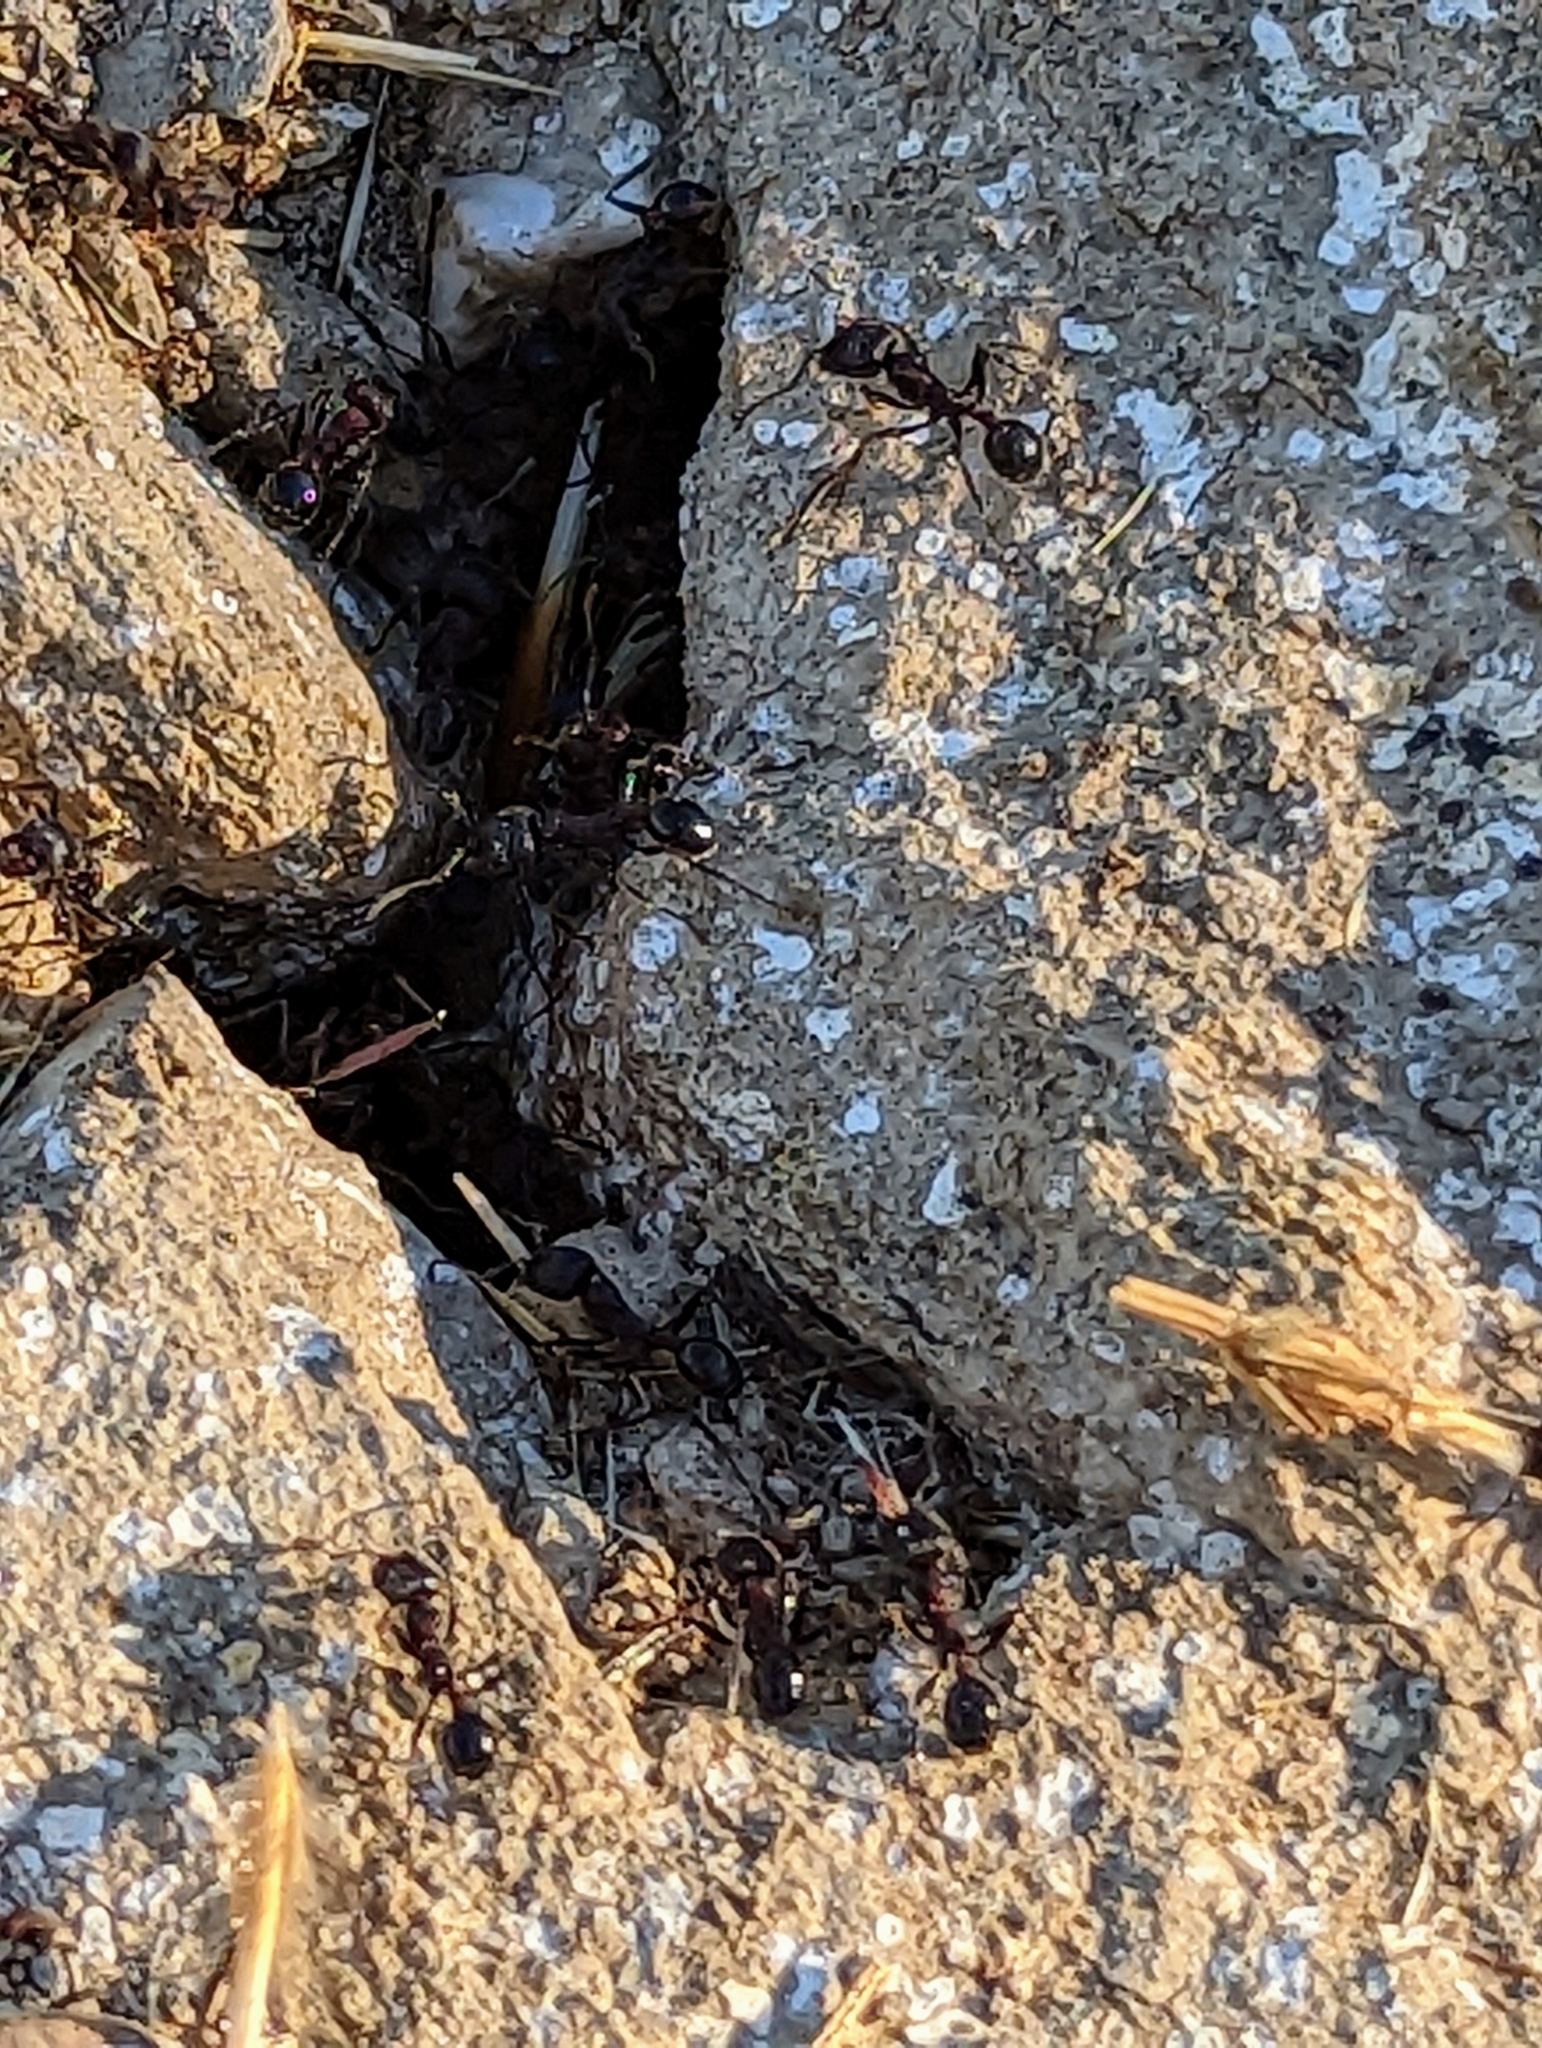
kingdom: Animalia
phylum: Arthropoda
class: Insecta
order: Hymenoptera
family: Formicidae
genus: Veromessor
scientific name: Veromessor andrei
